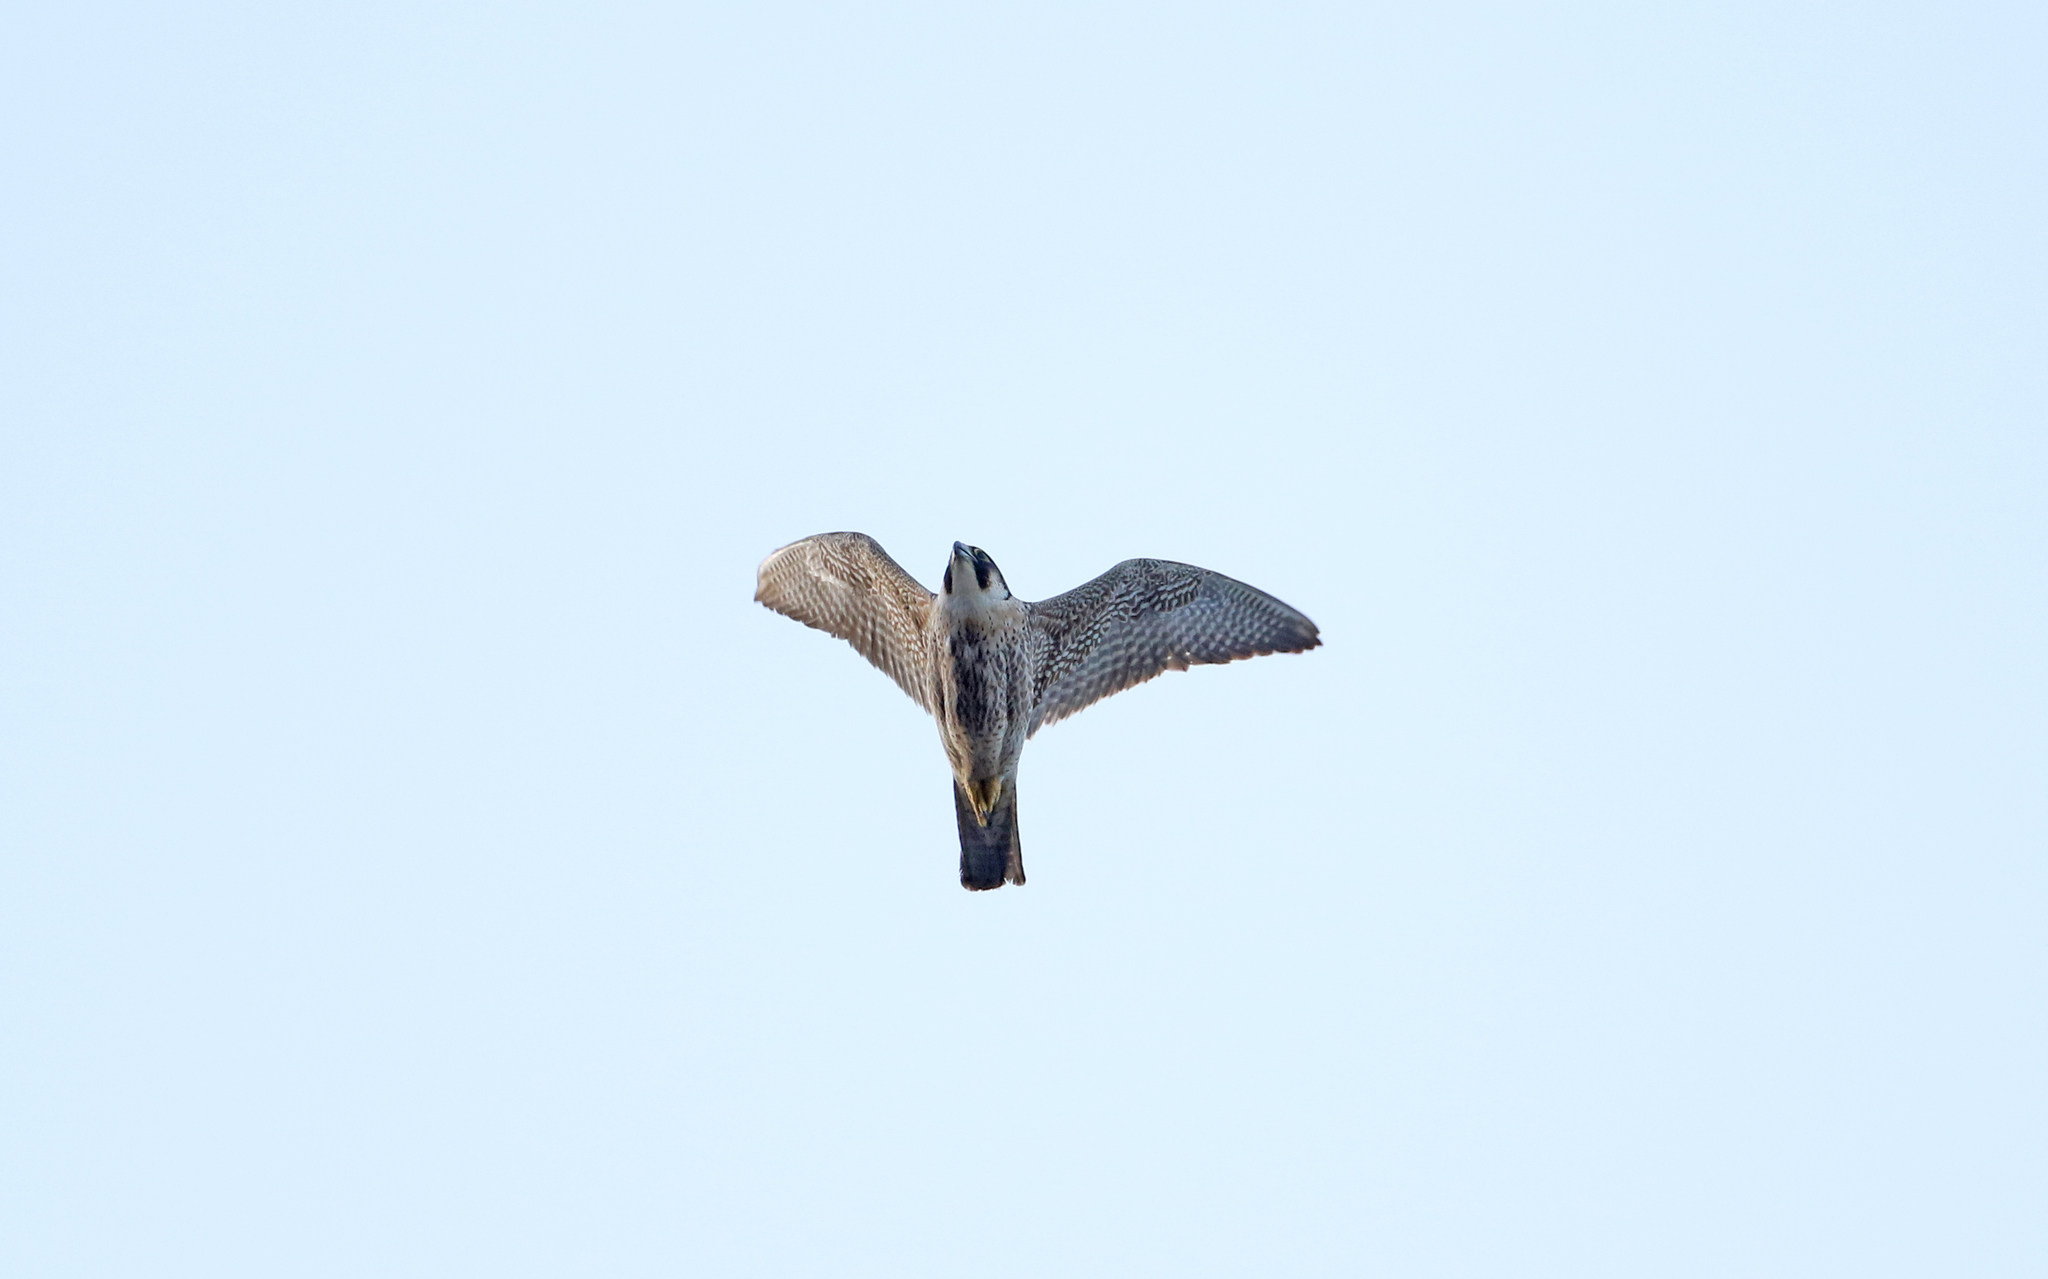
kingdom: Animalia
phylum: Chordata
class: Aves
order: Falconiformes
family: Falconidae
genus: Falco
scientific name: Falco peregrinus
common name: Peregrine falcon
